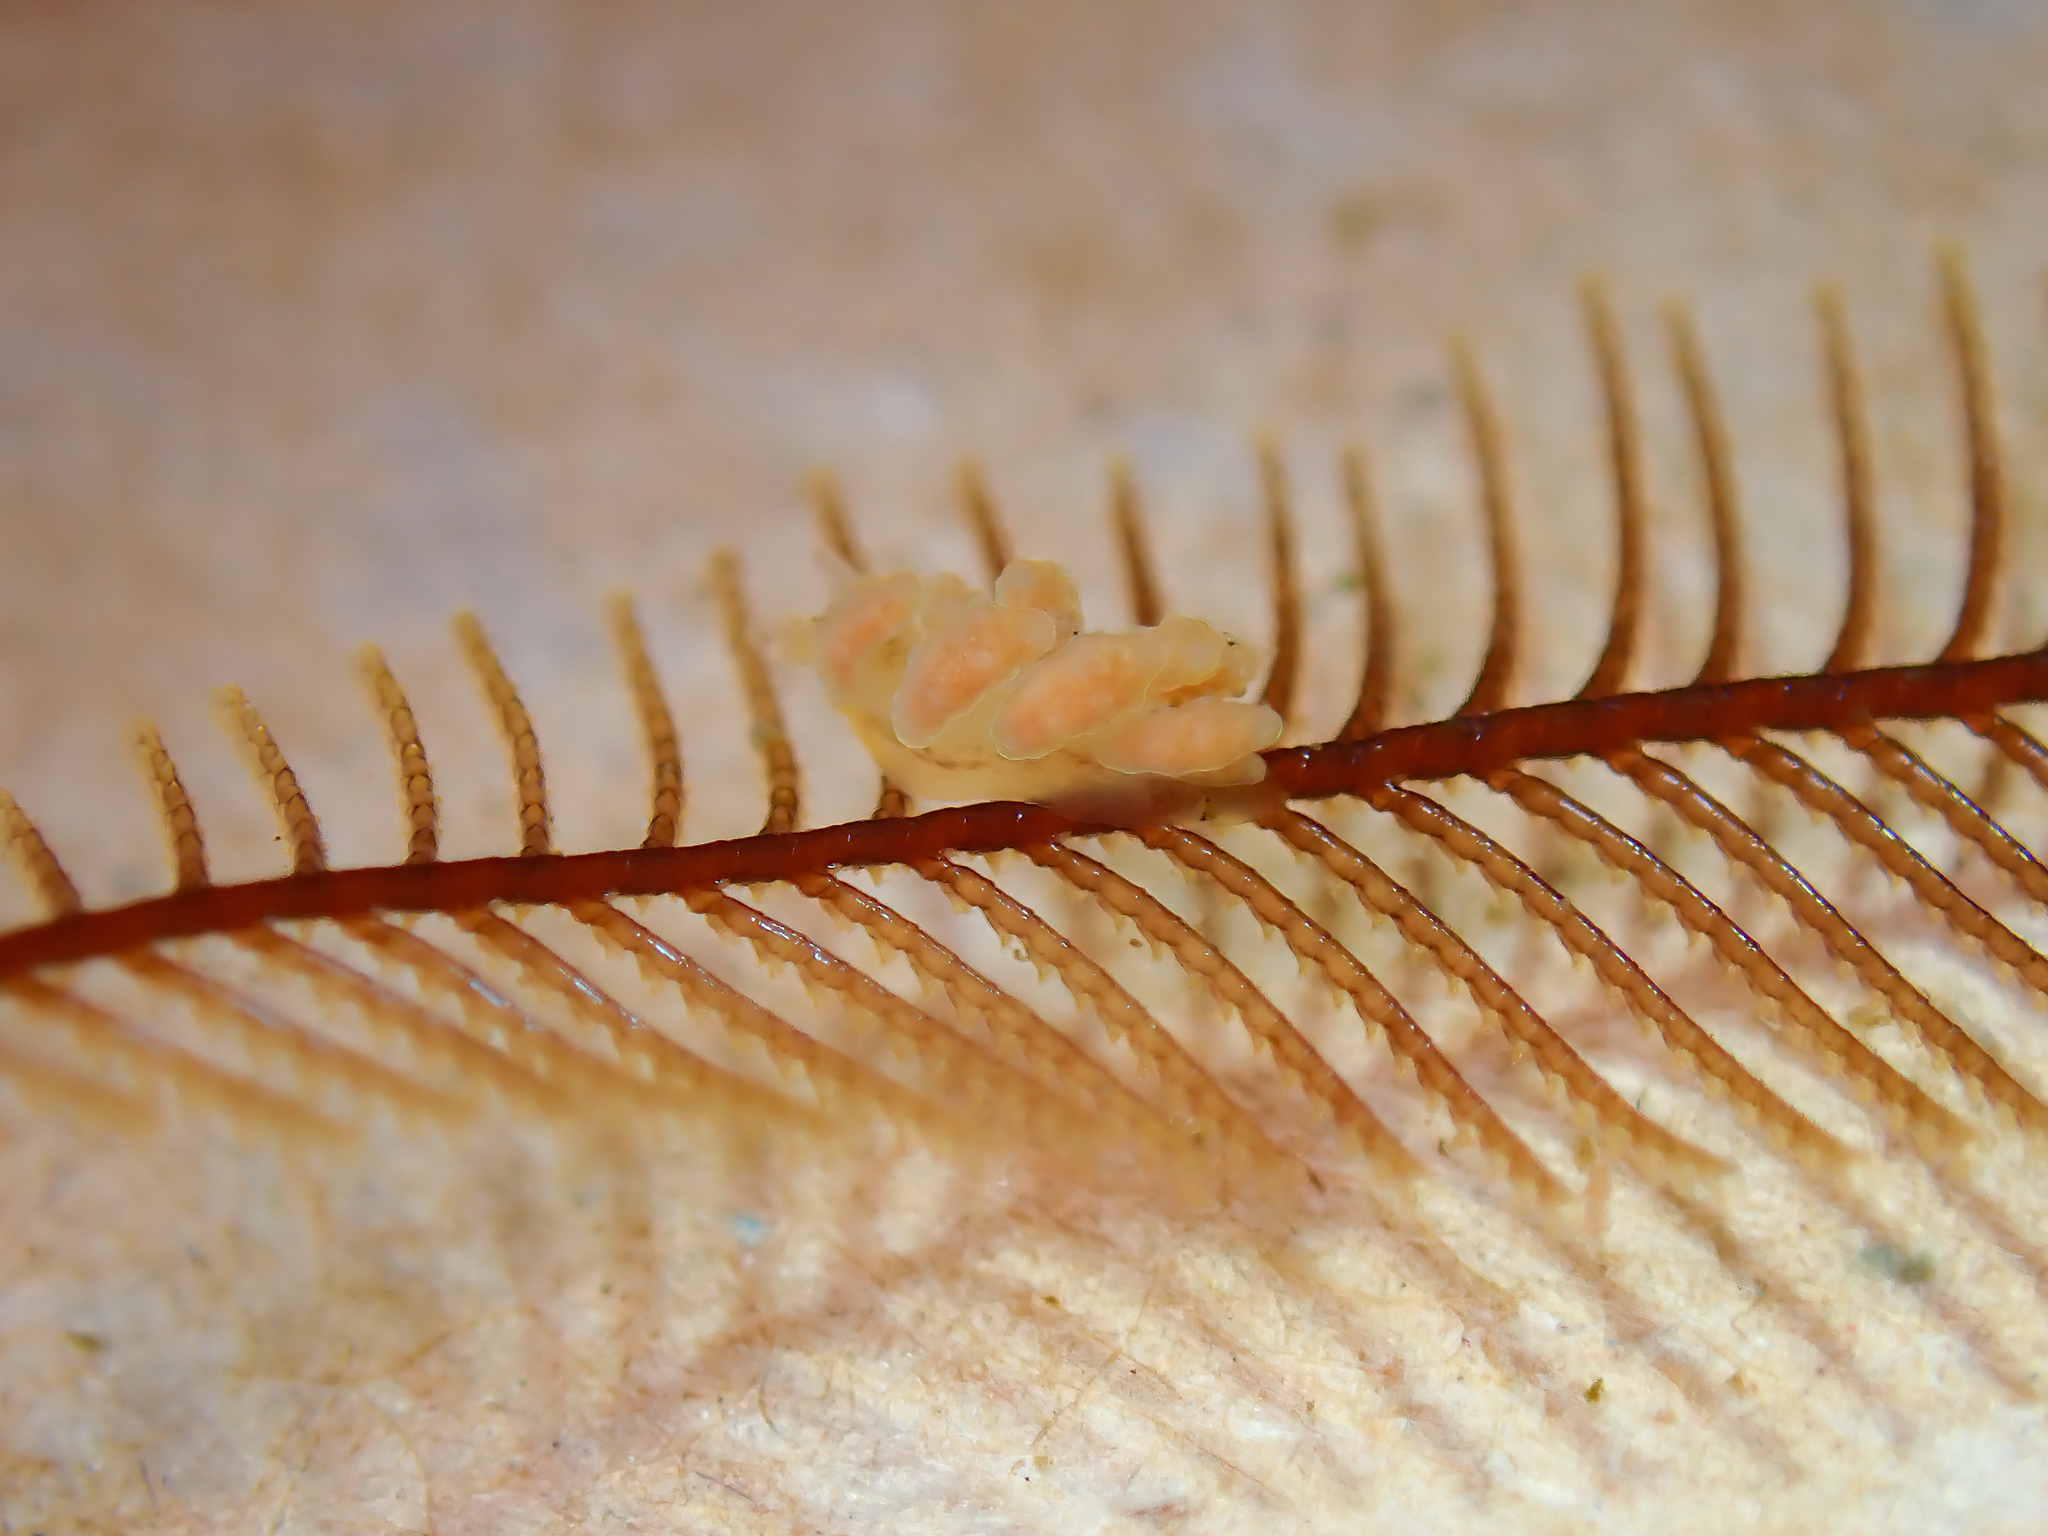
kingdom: Animalia
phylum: Mollusca
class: Gastropoda
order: Nudibranchia
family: Dotidae
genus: Doto
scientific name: Doto columbiana
